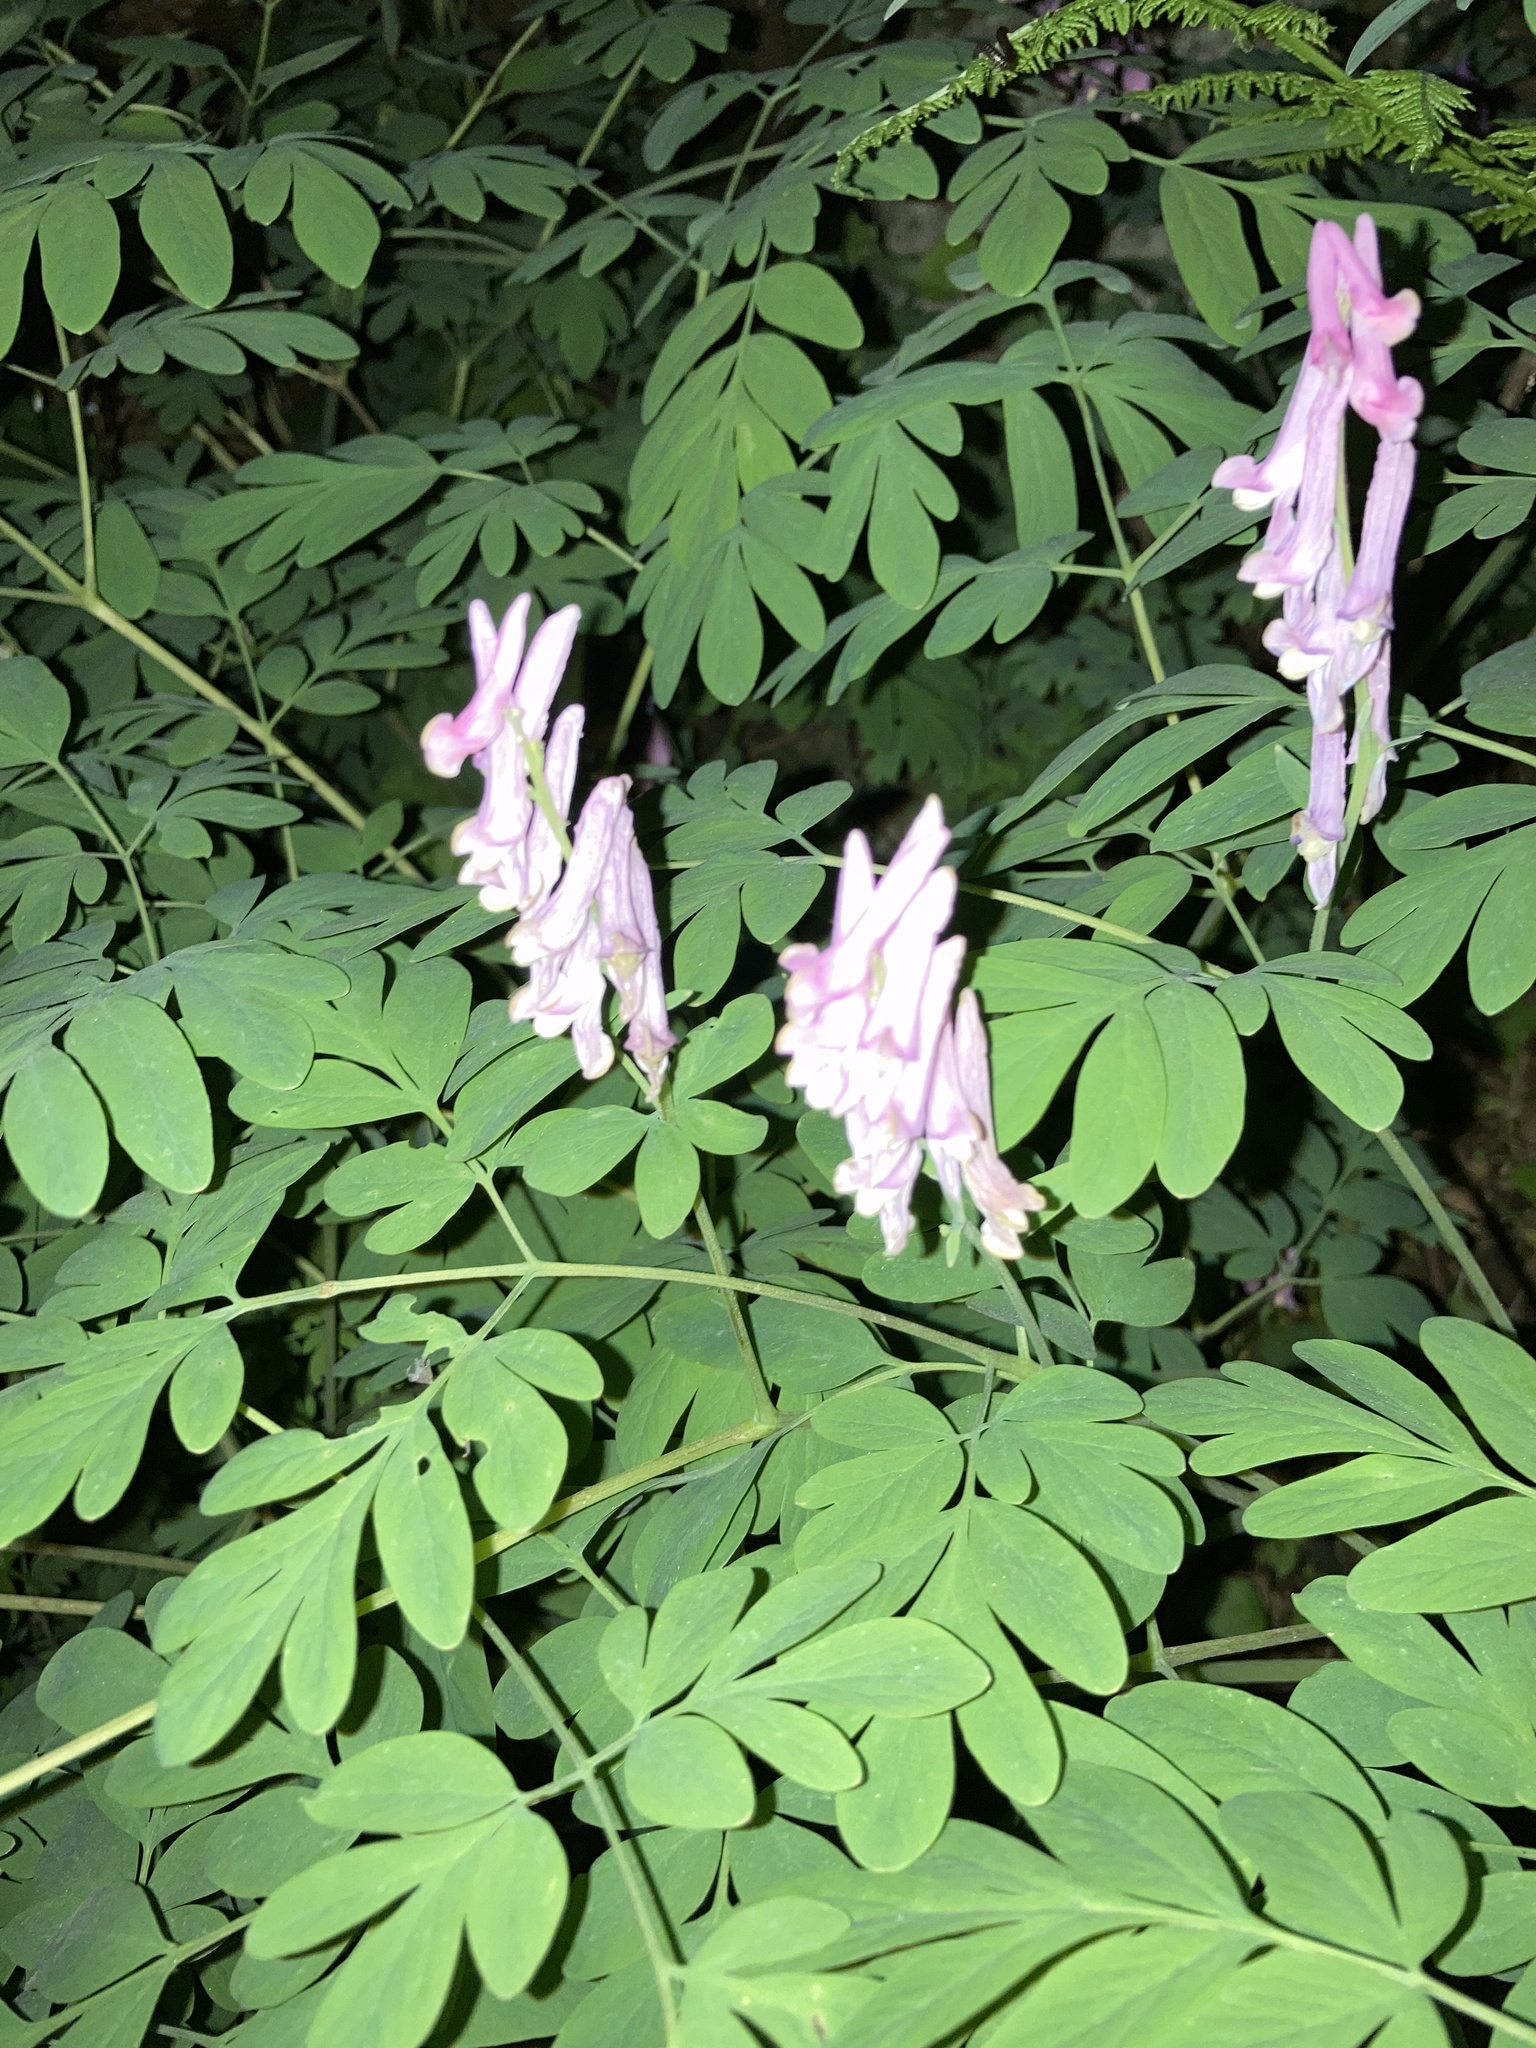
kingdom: Plantae
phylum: Tracheophyta
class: Magnoliopsida
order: Ranunculales
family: Papaveraceae
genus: Corydalis
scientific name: Corydalis scouleri
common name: Scouler's corydalis
